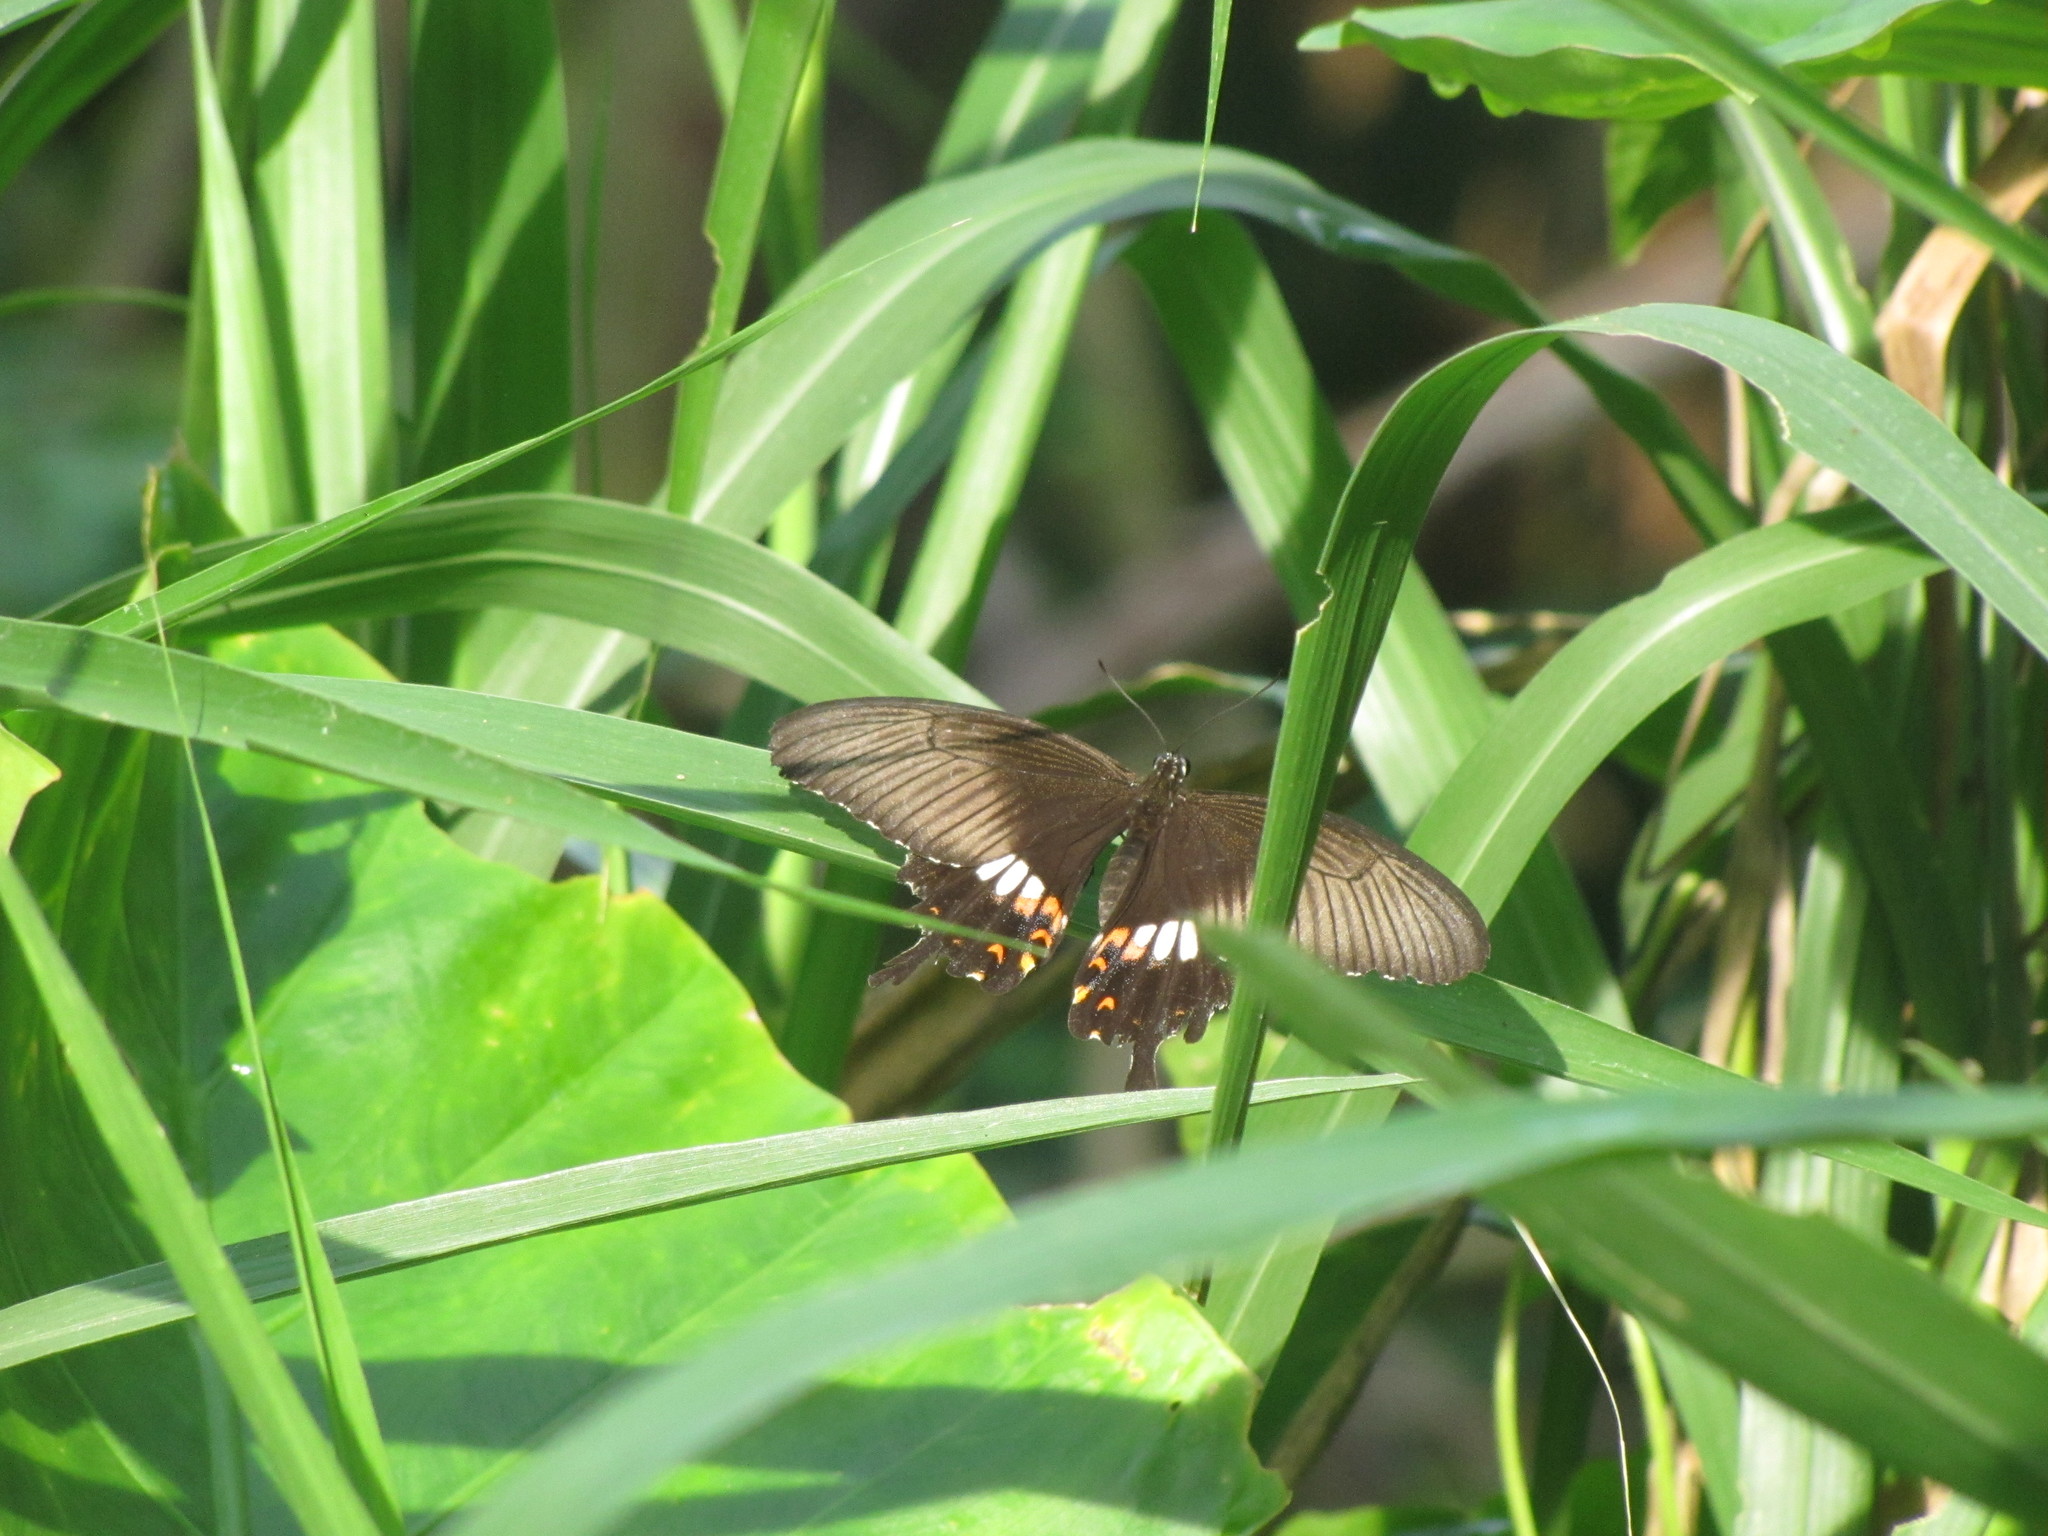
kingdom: Animalia
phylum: Arthropoda
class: Insecta
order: Lepidoptera
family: Papilionidae
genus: Papilio
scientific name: Papilio polytes
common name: Common mormon
